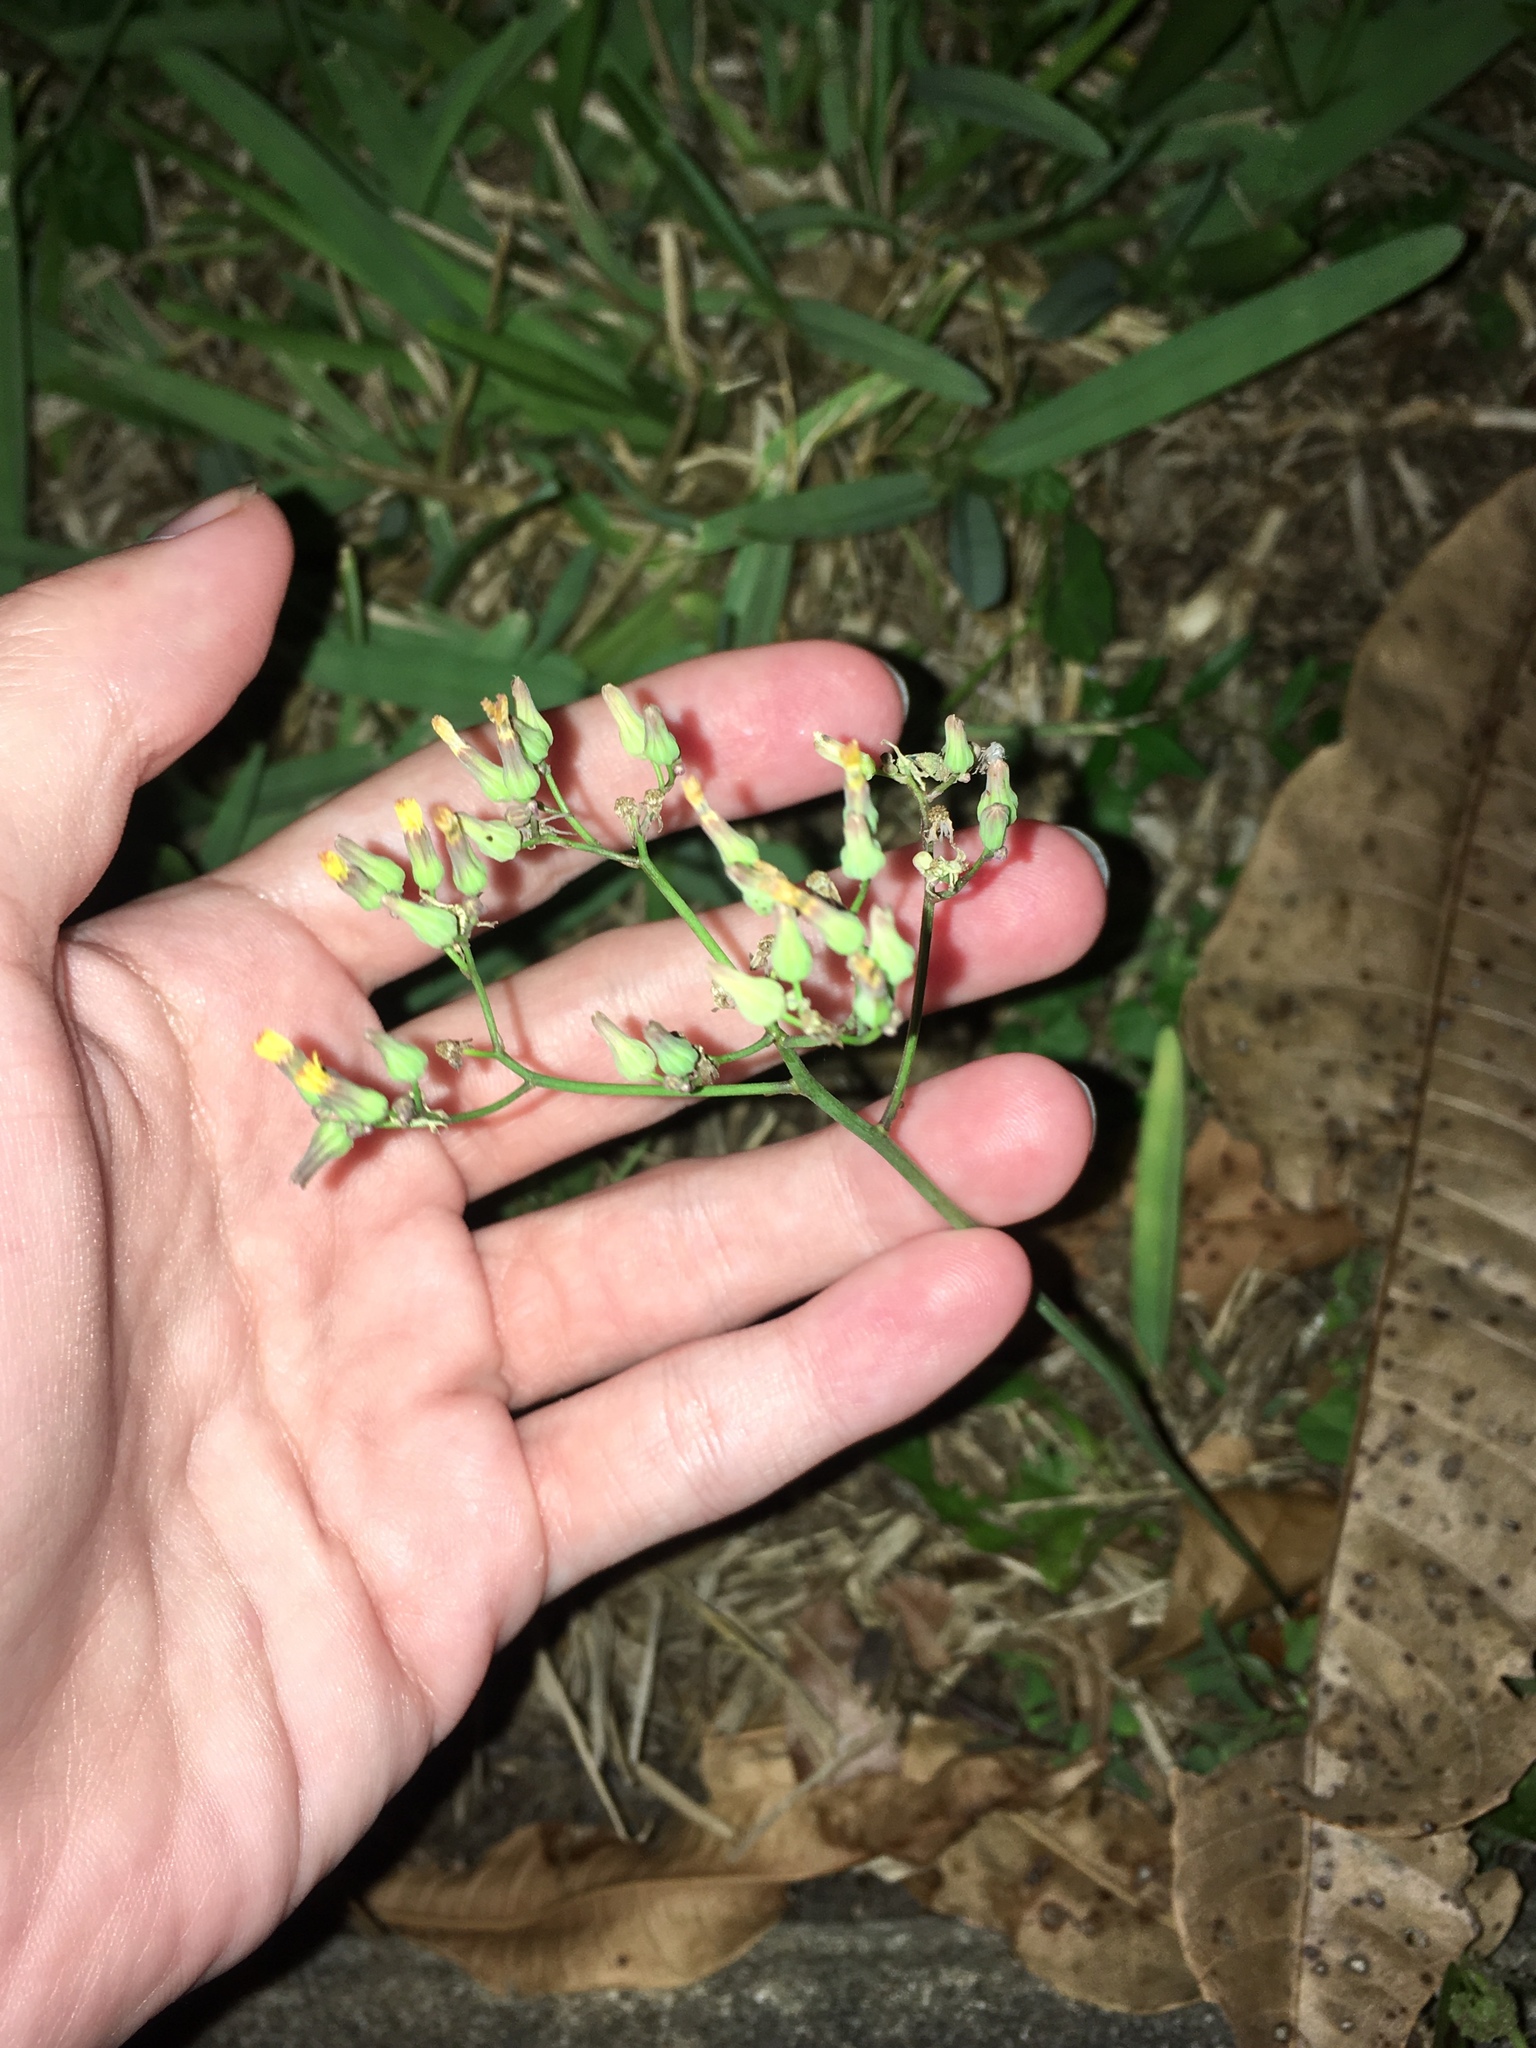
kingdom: Plantae
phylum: Tracheophyta
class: Magnoliopsida
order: Asterales
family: Asteraceae
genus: Youngia
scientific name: Youngia japonica
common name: Oriental false hawksbeard
